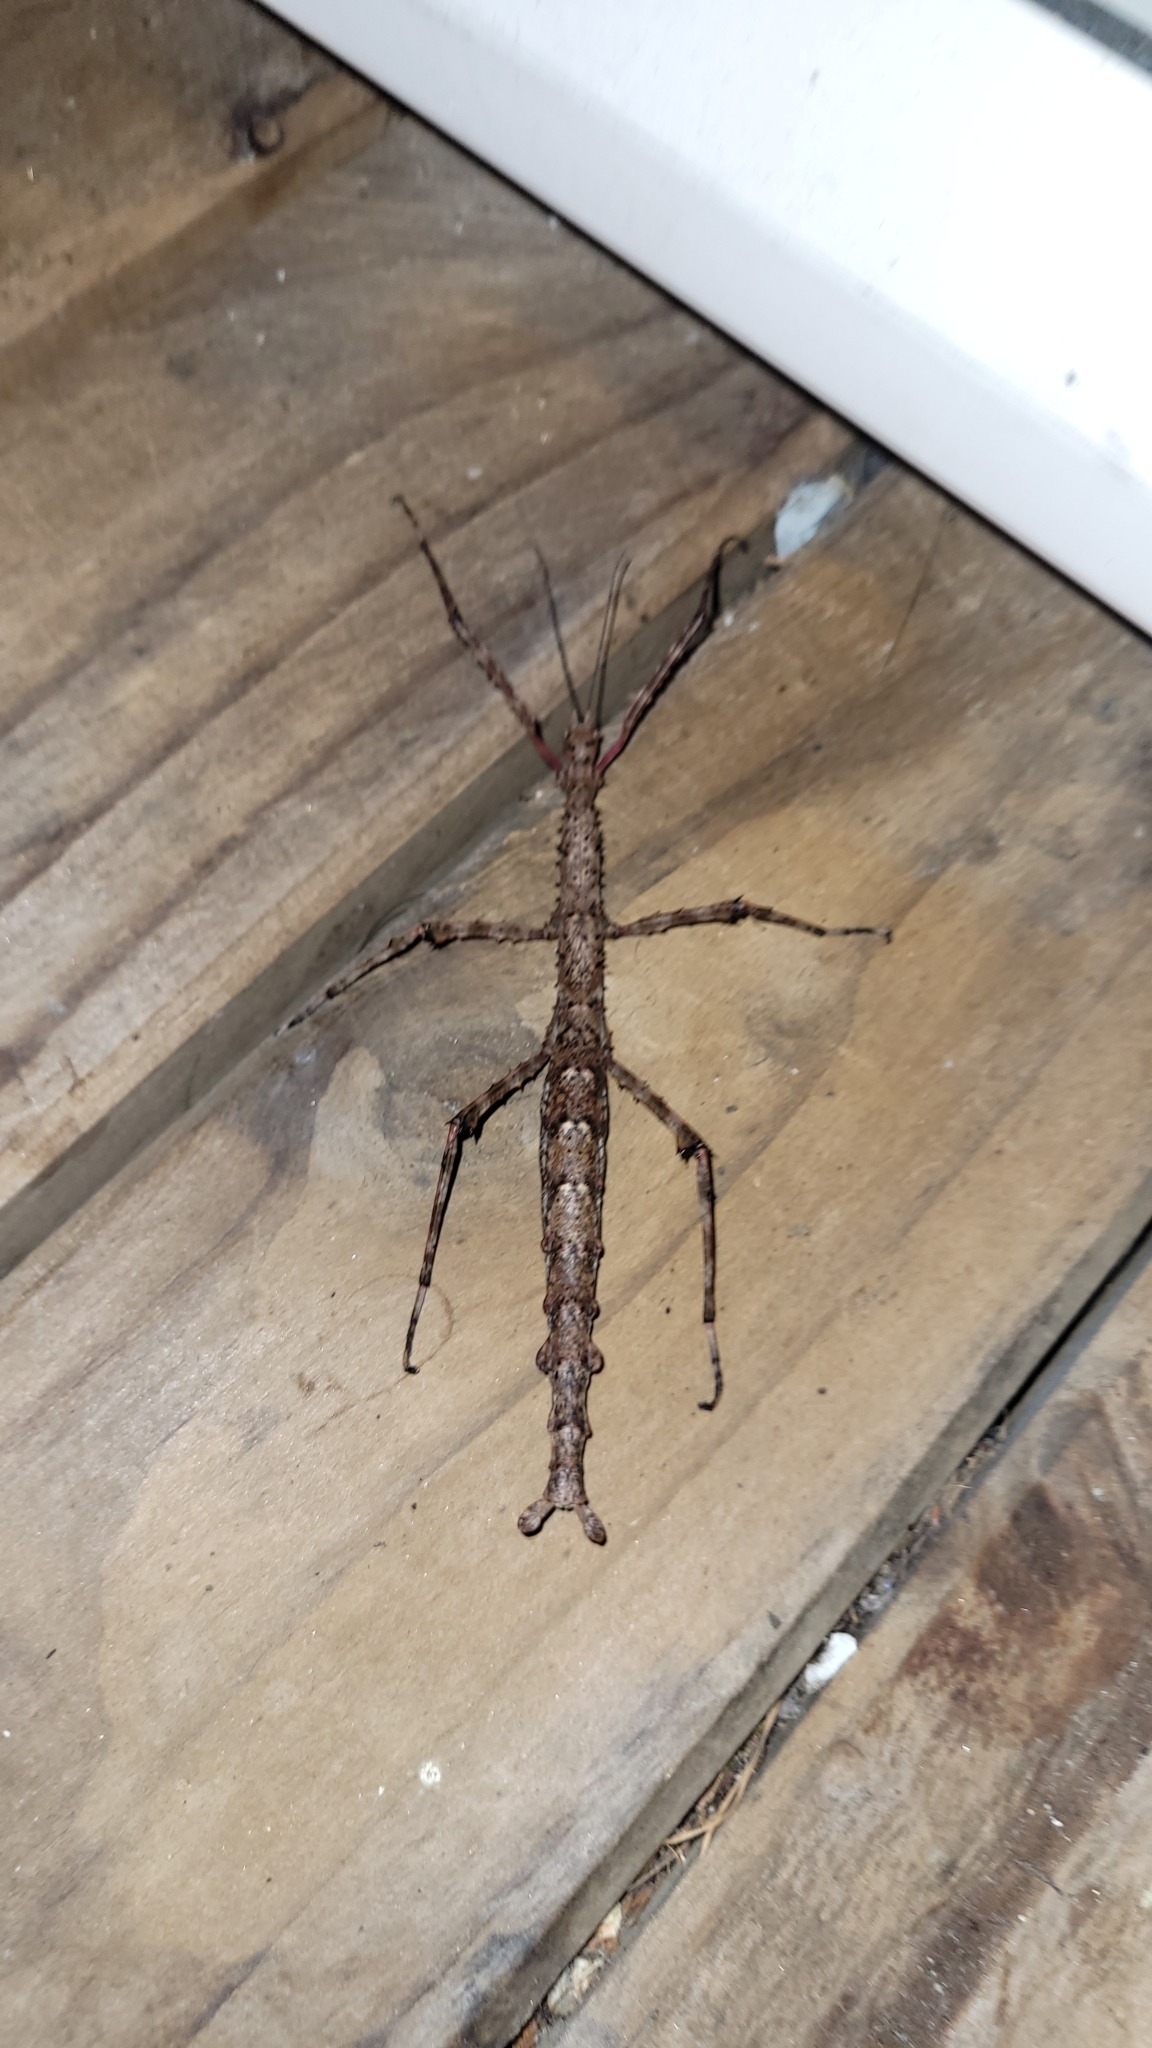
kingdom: Animalia
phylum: Arthropoda
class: Insecta
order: Phasmida
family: Phasmatidae
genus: Acanthoxyla
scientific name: Acanthoxyla prasina
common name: Black-spined stick insect
